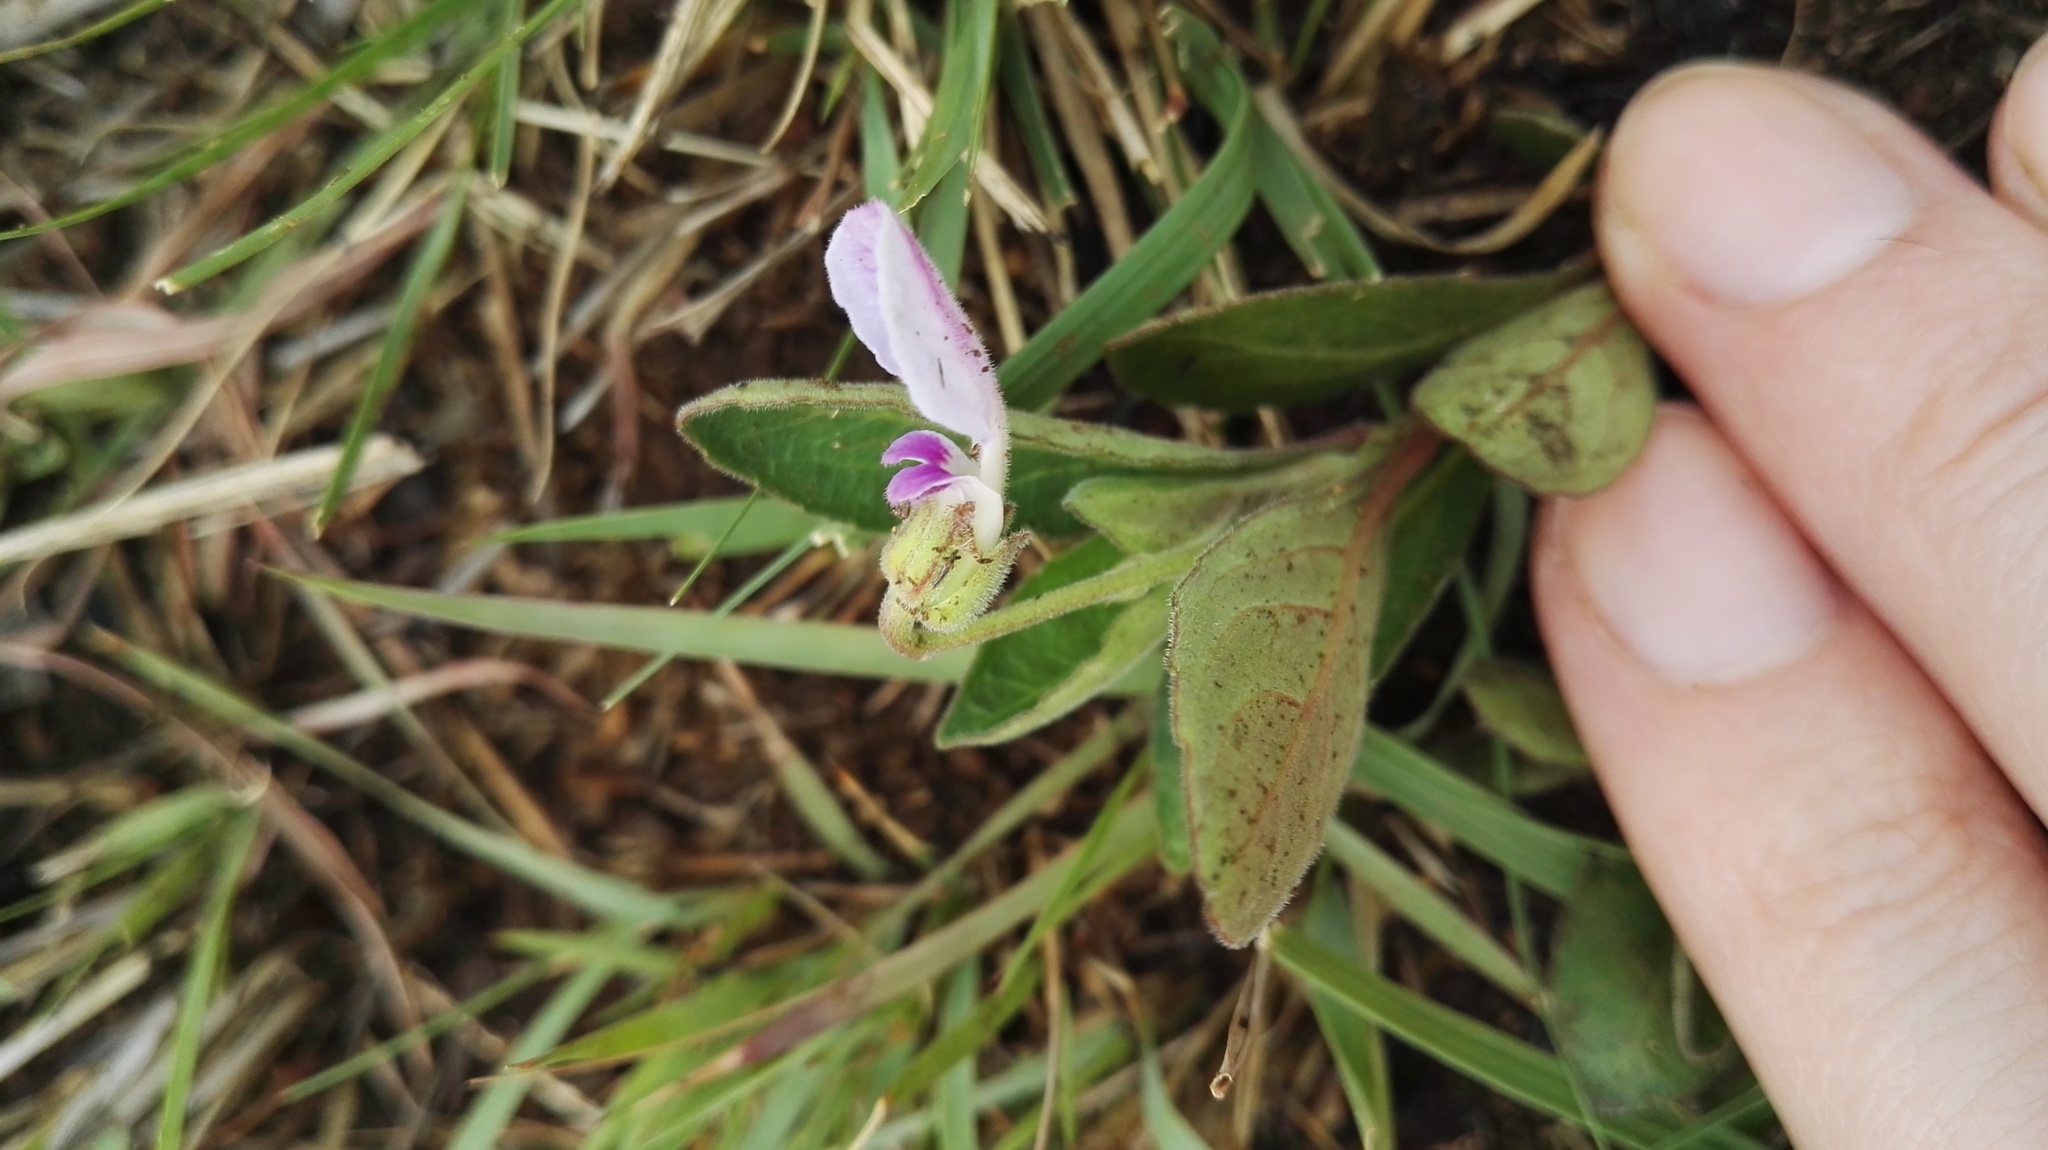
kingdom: Plantae
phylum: Tracheophyta
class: Magnoliopsida
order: Malpighiales
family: Violaceae
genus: Hybanthus
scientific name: Hybanthus capensis
